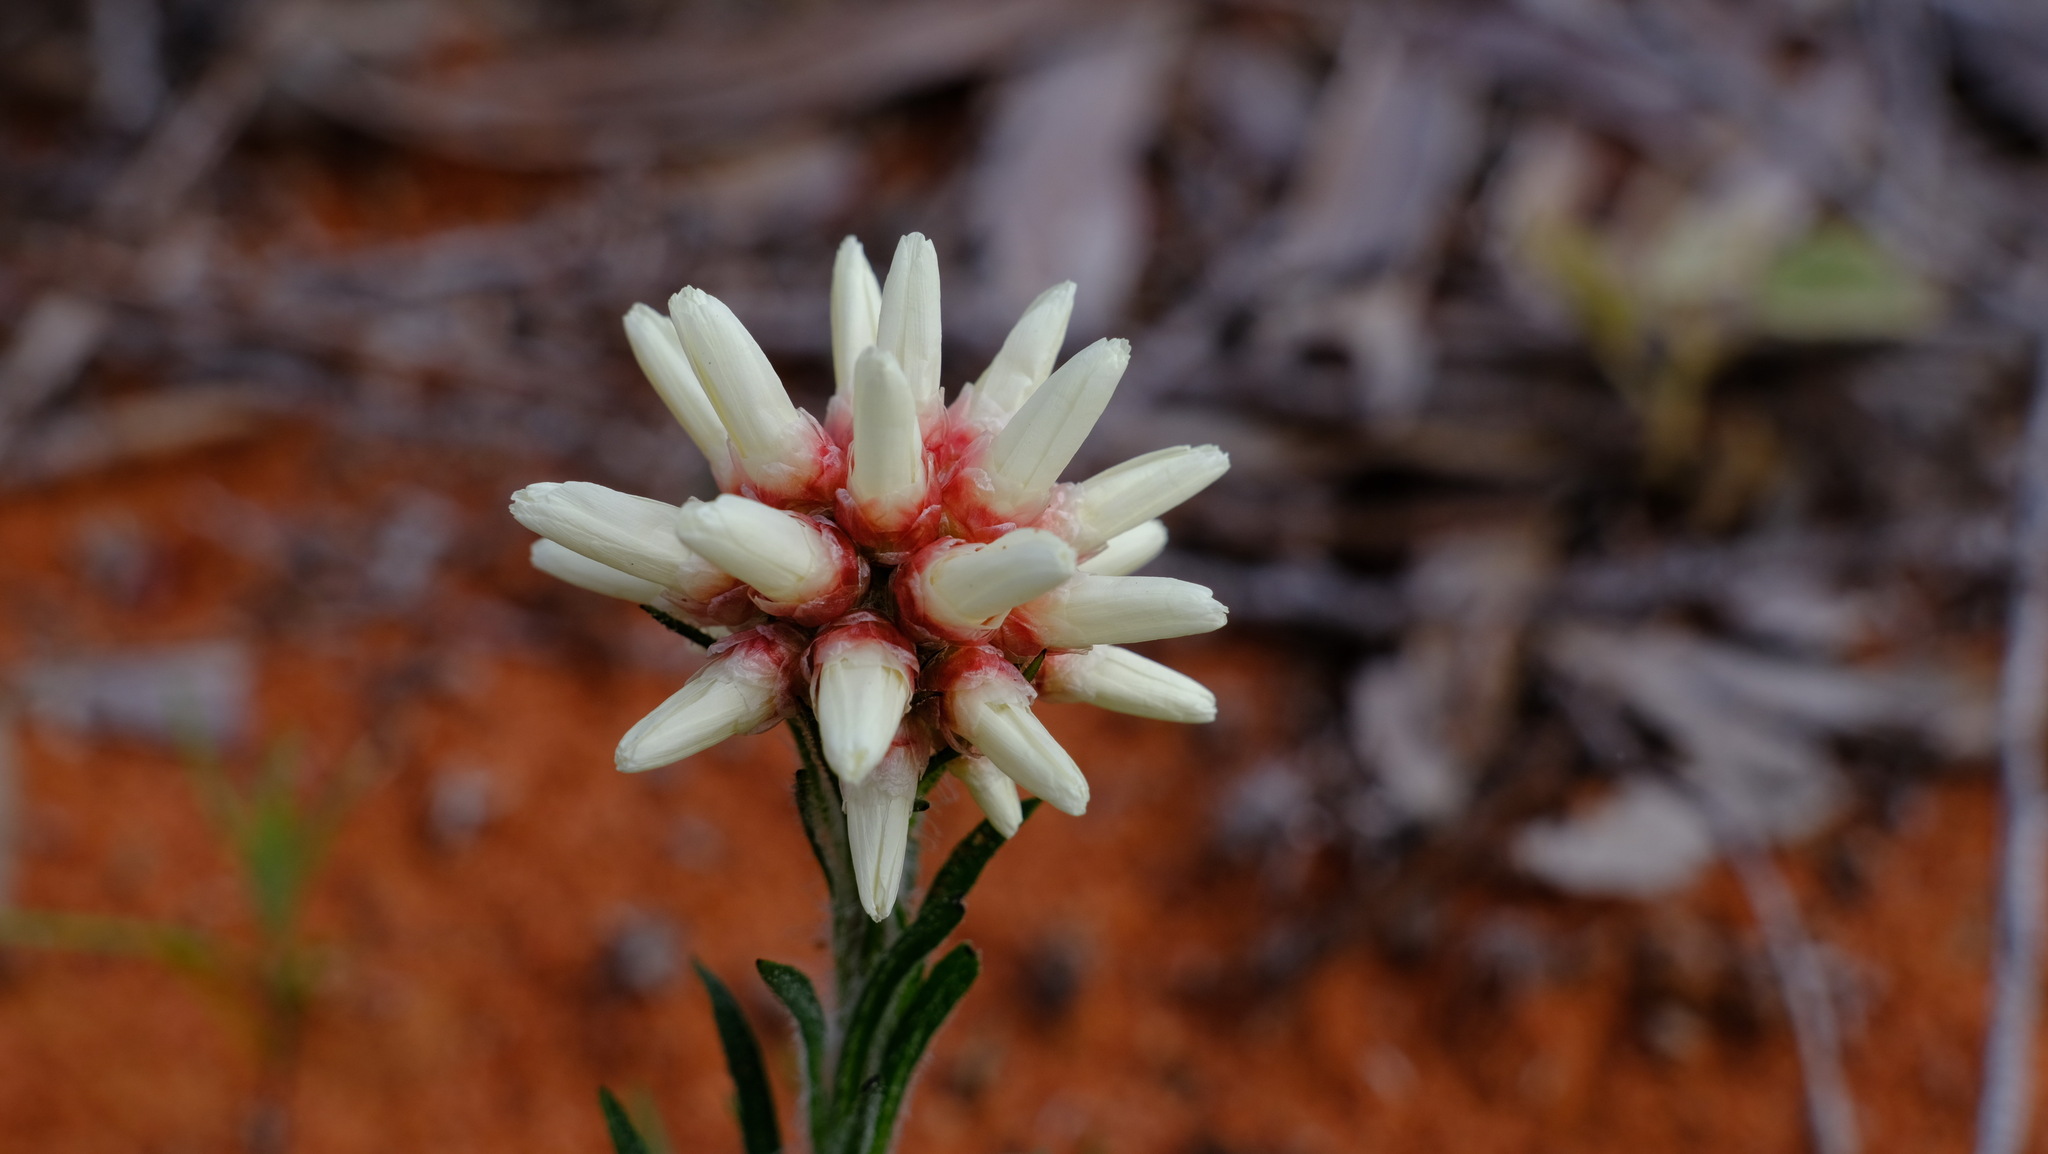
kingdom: Plantae
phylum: Tracheophyta
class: Magnoliopsida
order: Asterales
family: Asteraceae
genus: Cephalipterum
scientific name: Cephalipterum drummondii
